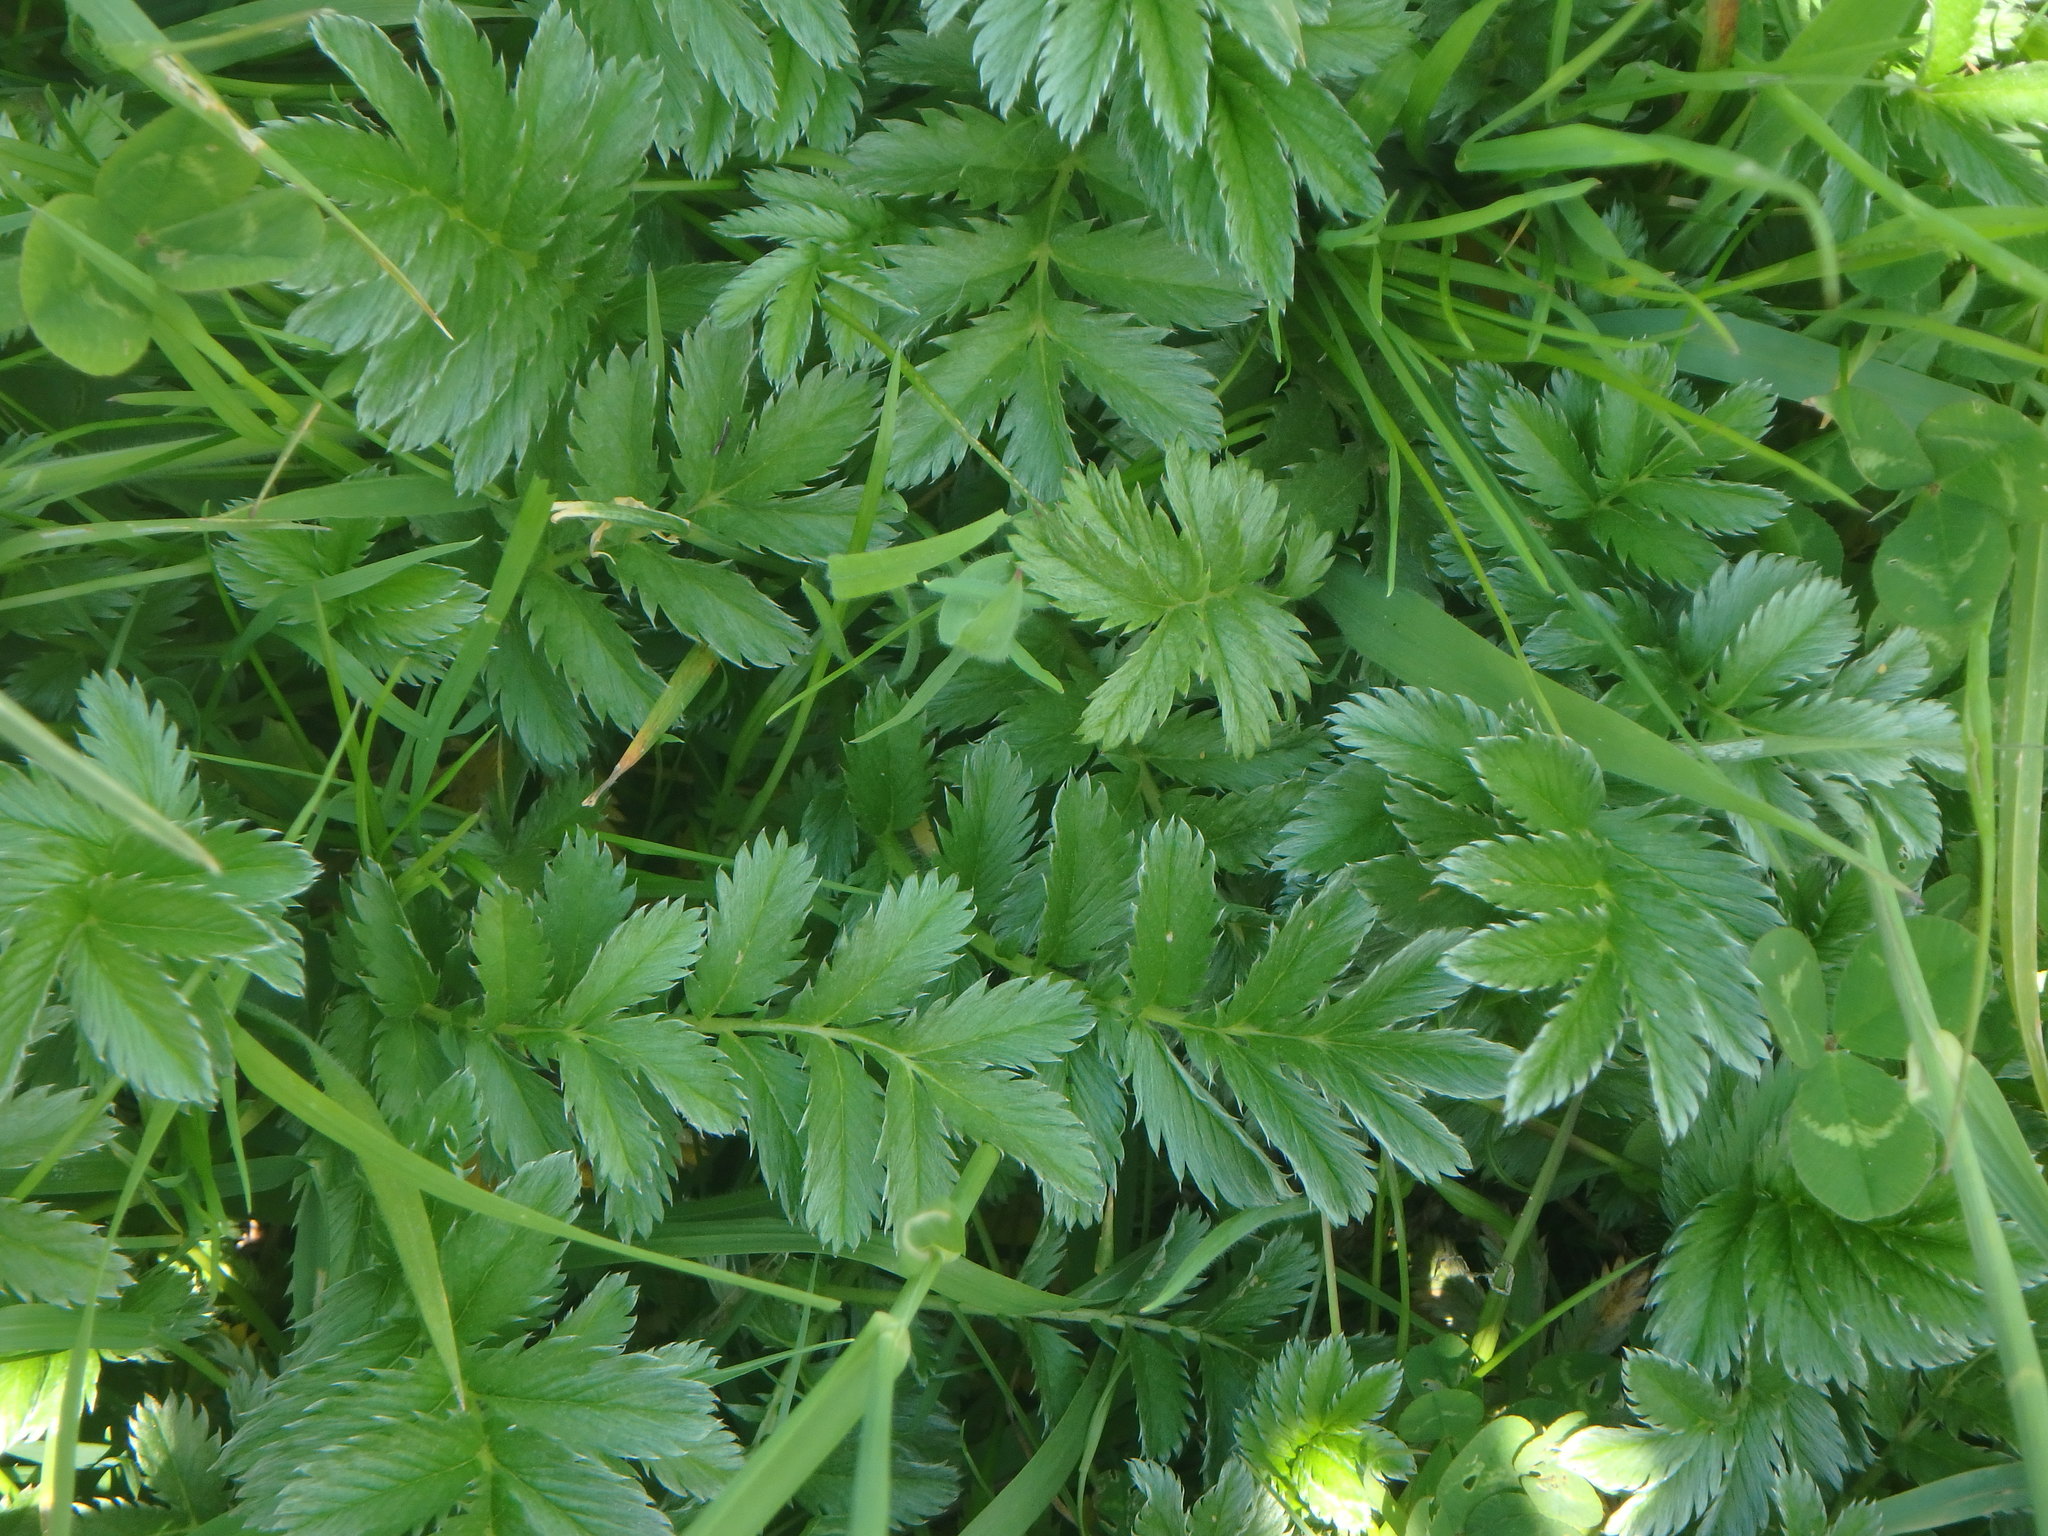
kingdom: Plantae
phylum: Tracheophyta
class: Magnoliopsida
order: Rosales
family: Rosaceae
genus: Argentina
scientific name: Argentina anserina
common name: Common silverweed
